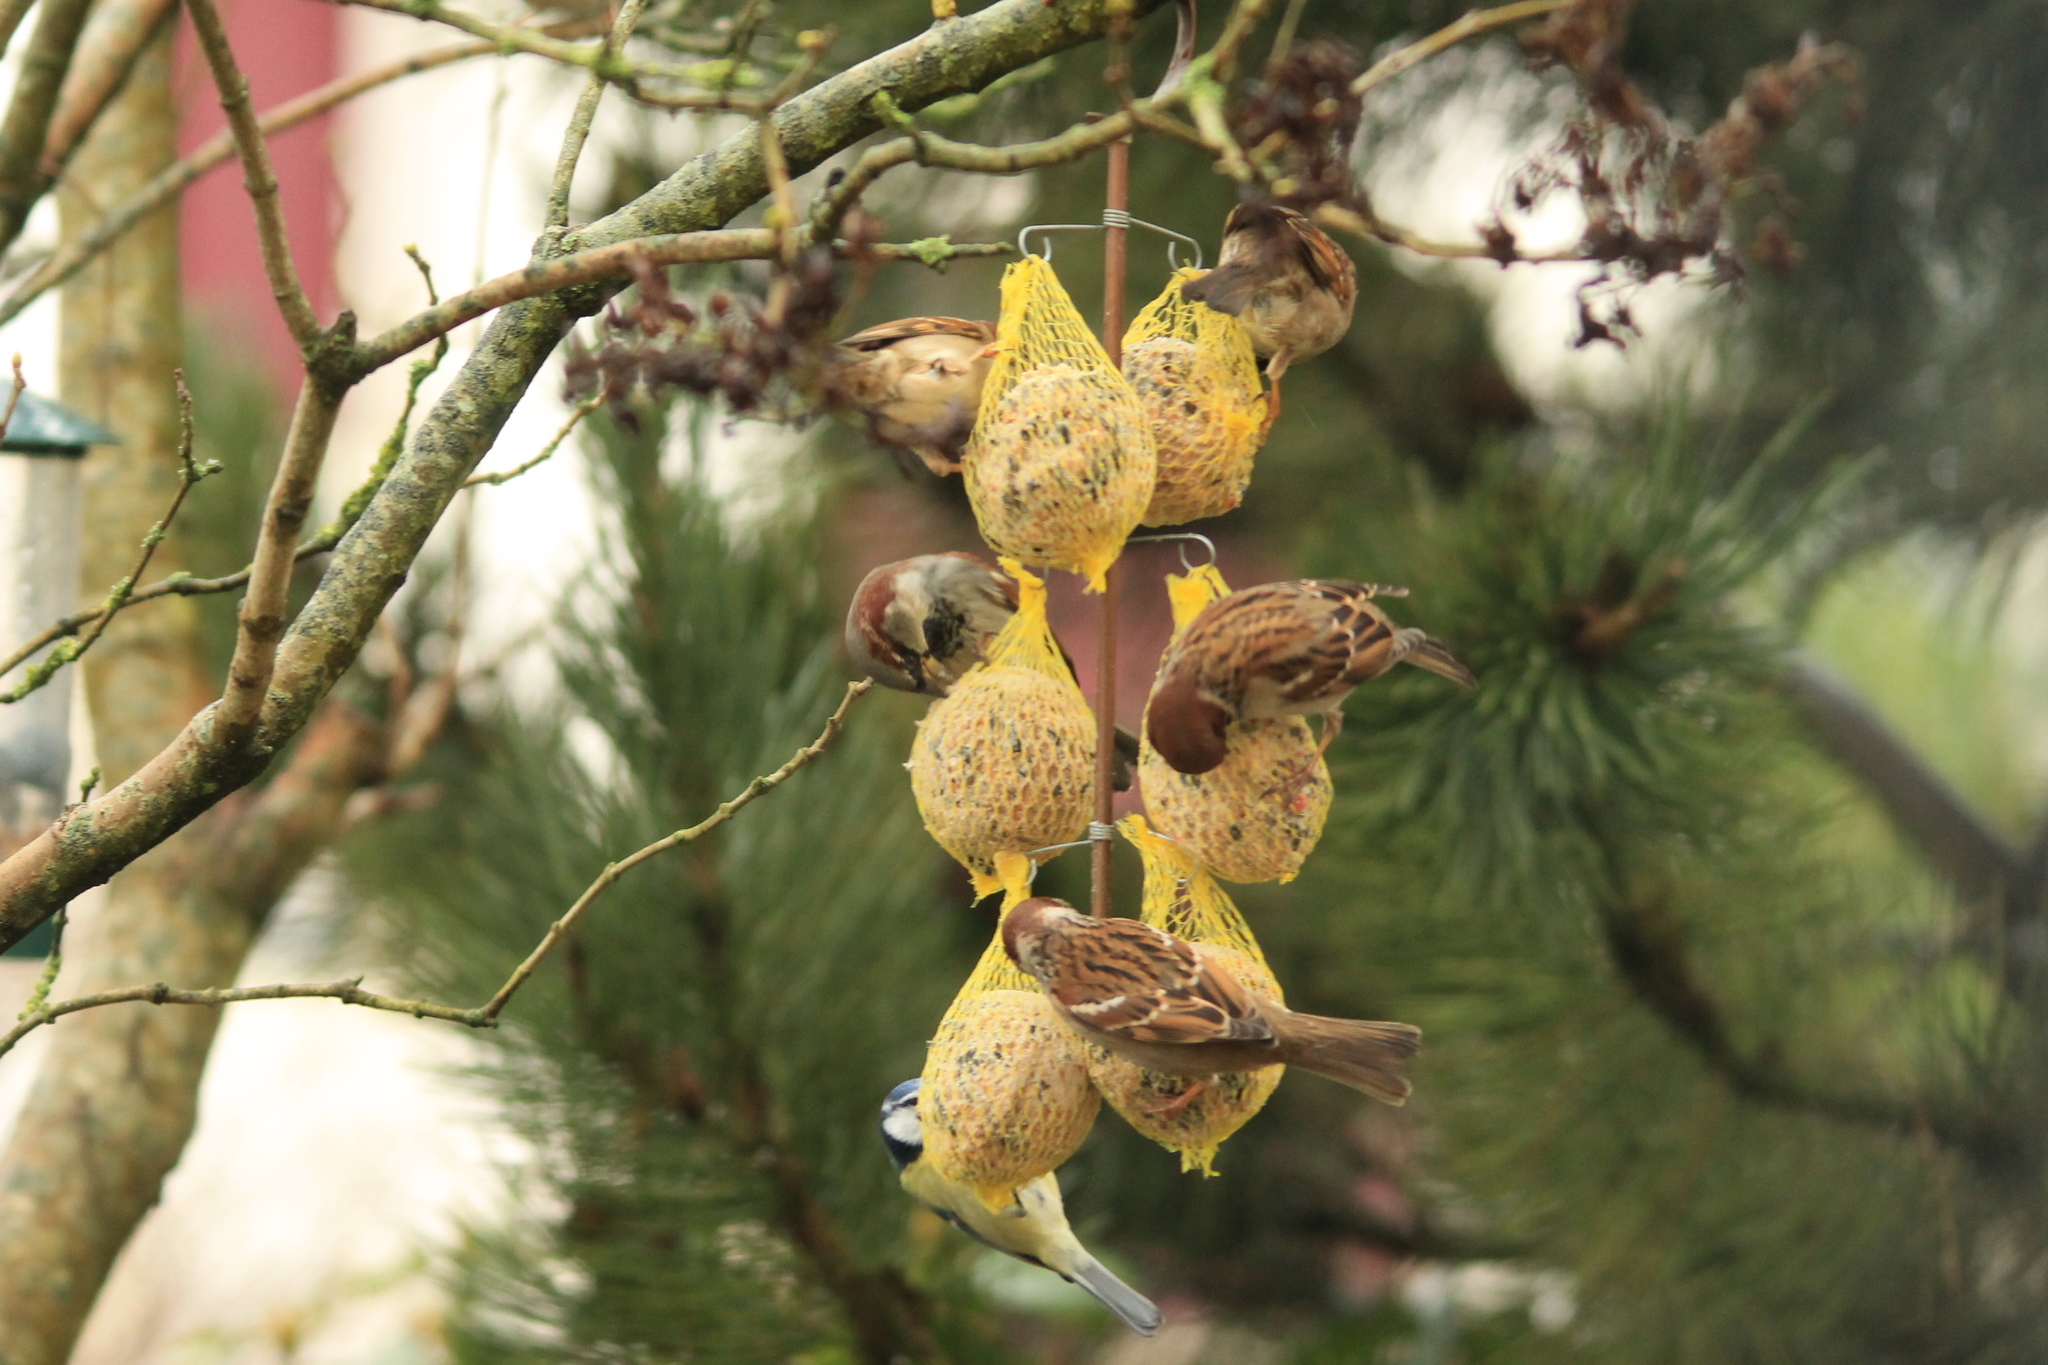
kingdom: Animalia
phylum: Chordata
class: Aves
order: Passeriformes
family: Passeridae
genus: Passer
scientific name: Passer domesticus
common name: House sparrow
